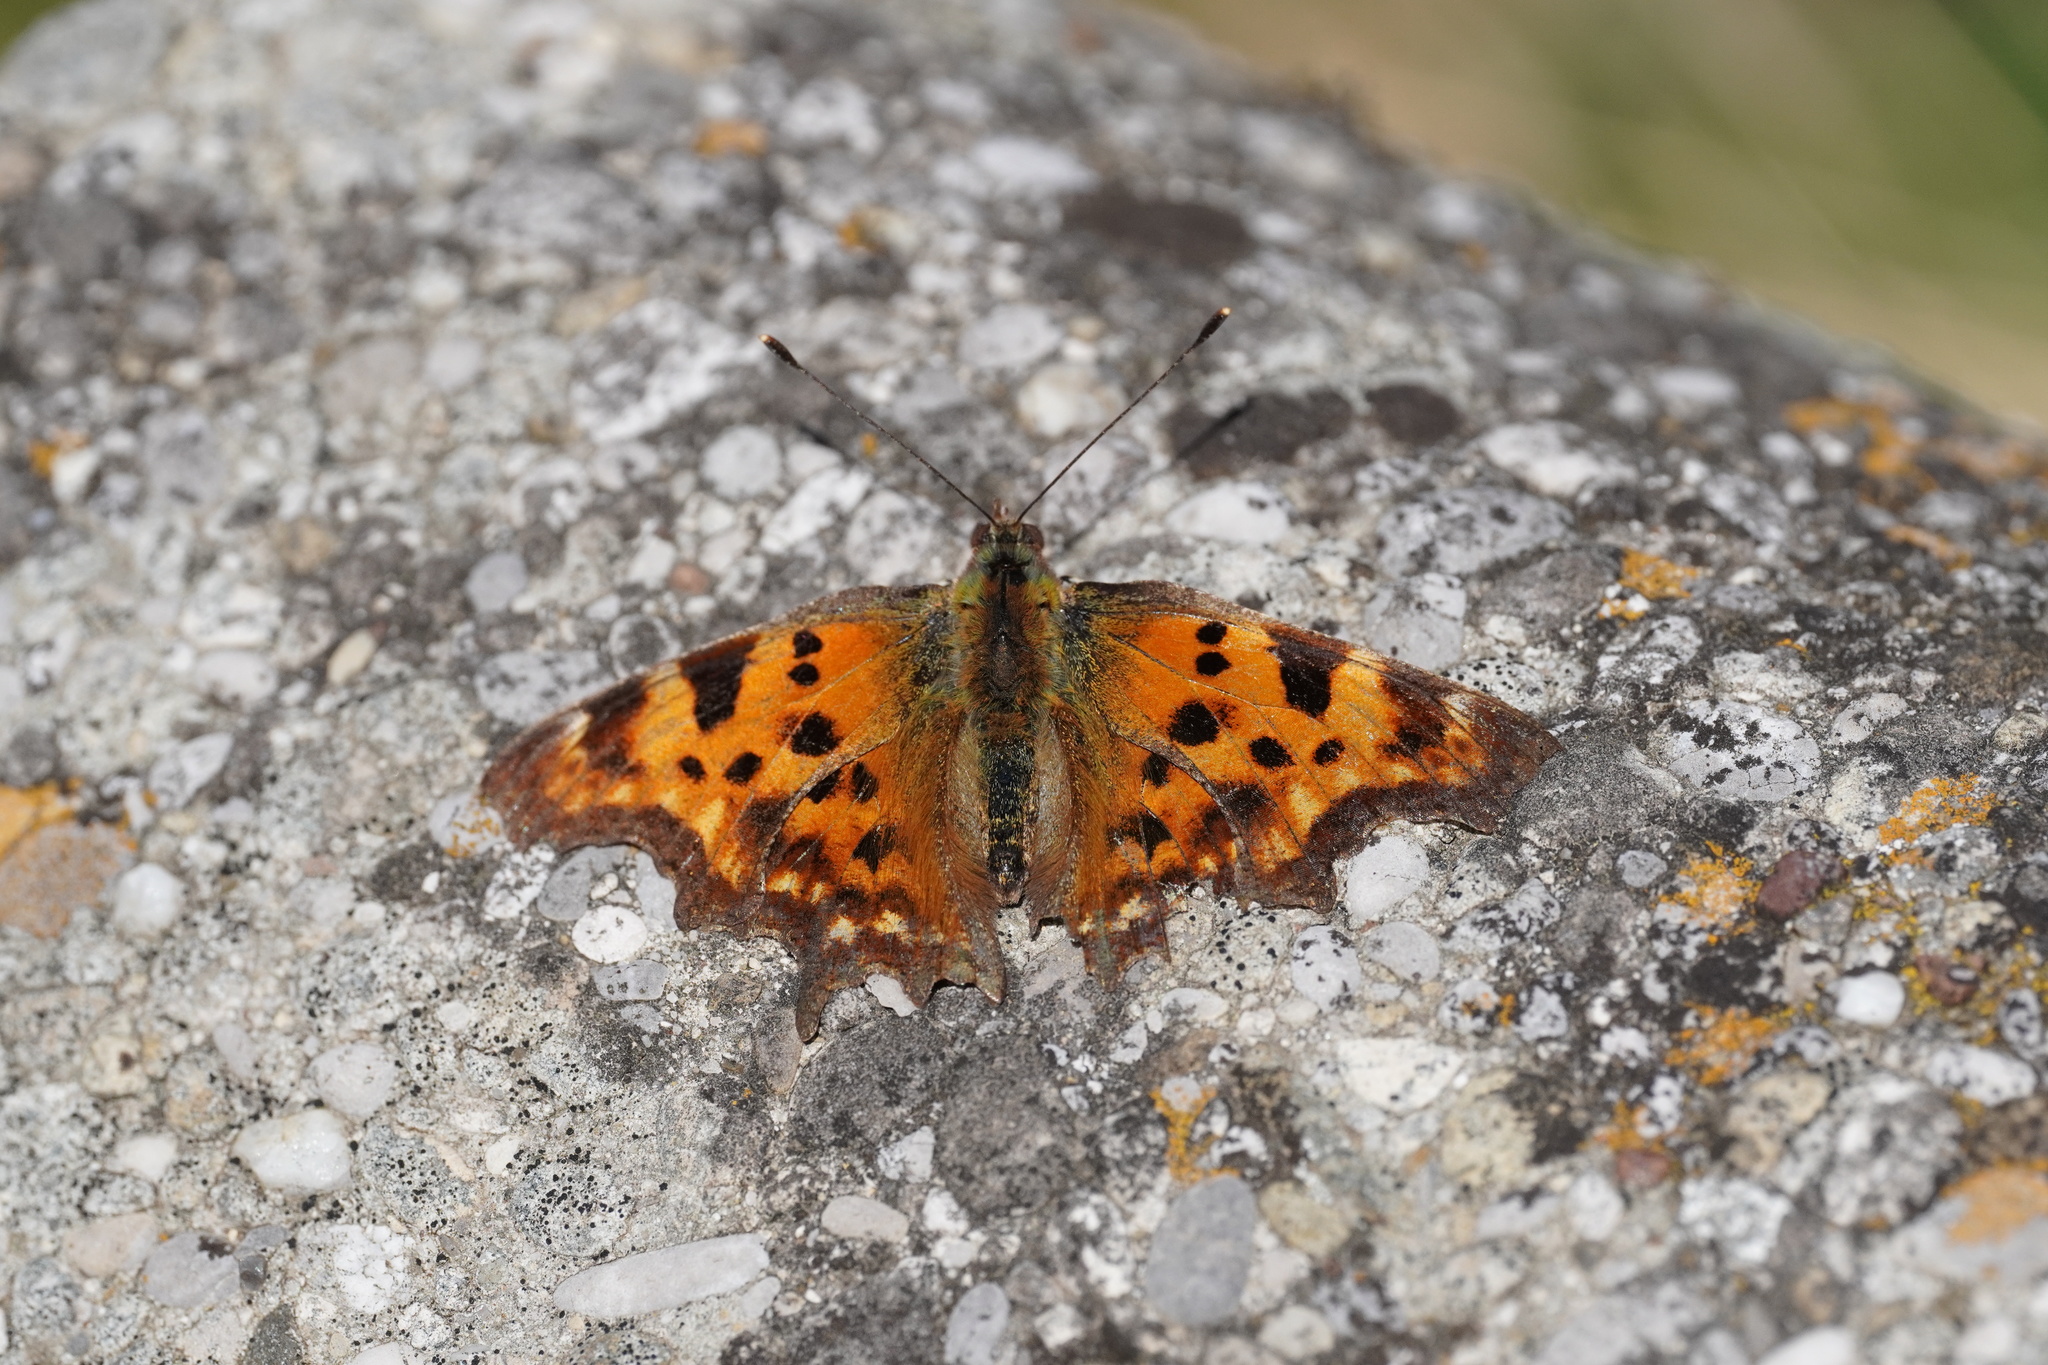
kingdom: Animalia
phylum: Arthropoda
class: Insecta
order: Lepidoptera
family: Nymphalidae
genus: Polygonia
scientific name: Polygonia c-album
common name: Comma
